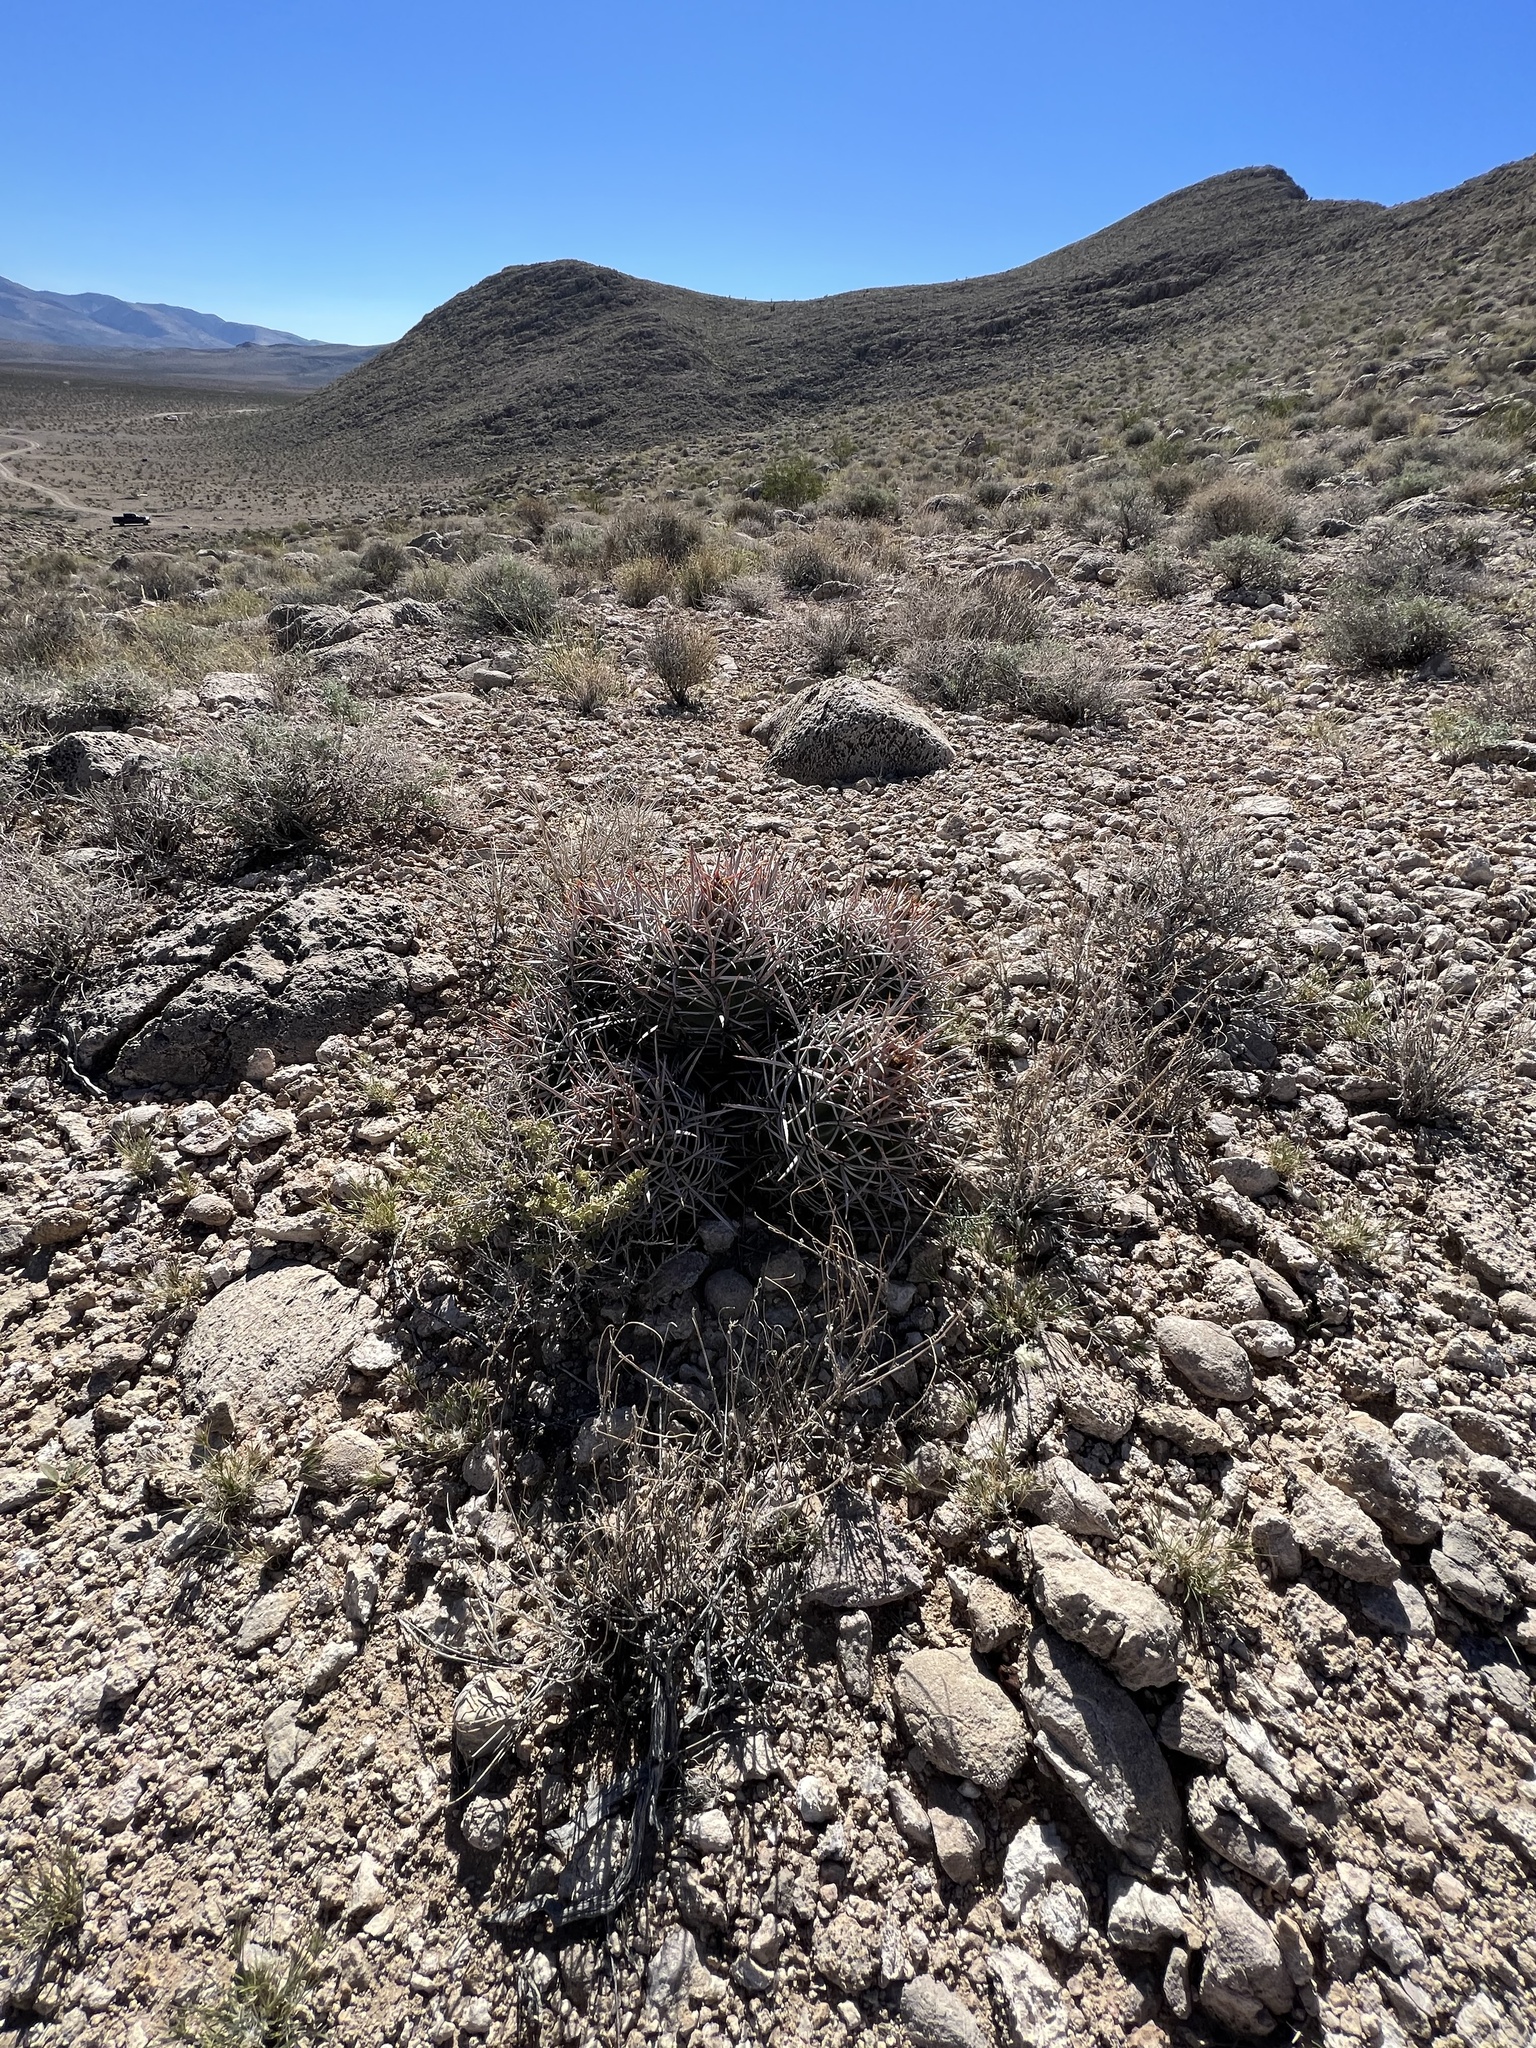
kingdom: Plantae
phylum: Tracheophyta
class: Magnoliopsida
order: Caryophyllales
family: Cactaceae
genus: Echinocactus
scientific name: Echinocactus polycephalus
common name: Cottontop cactus
